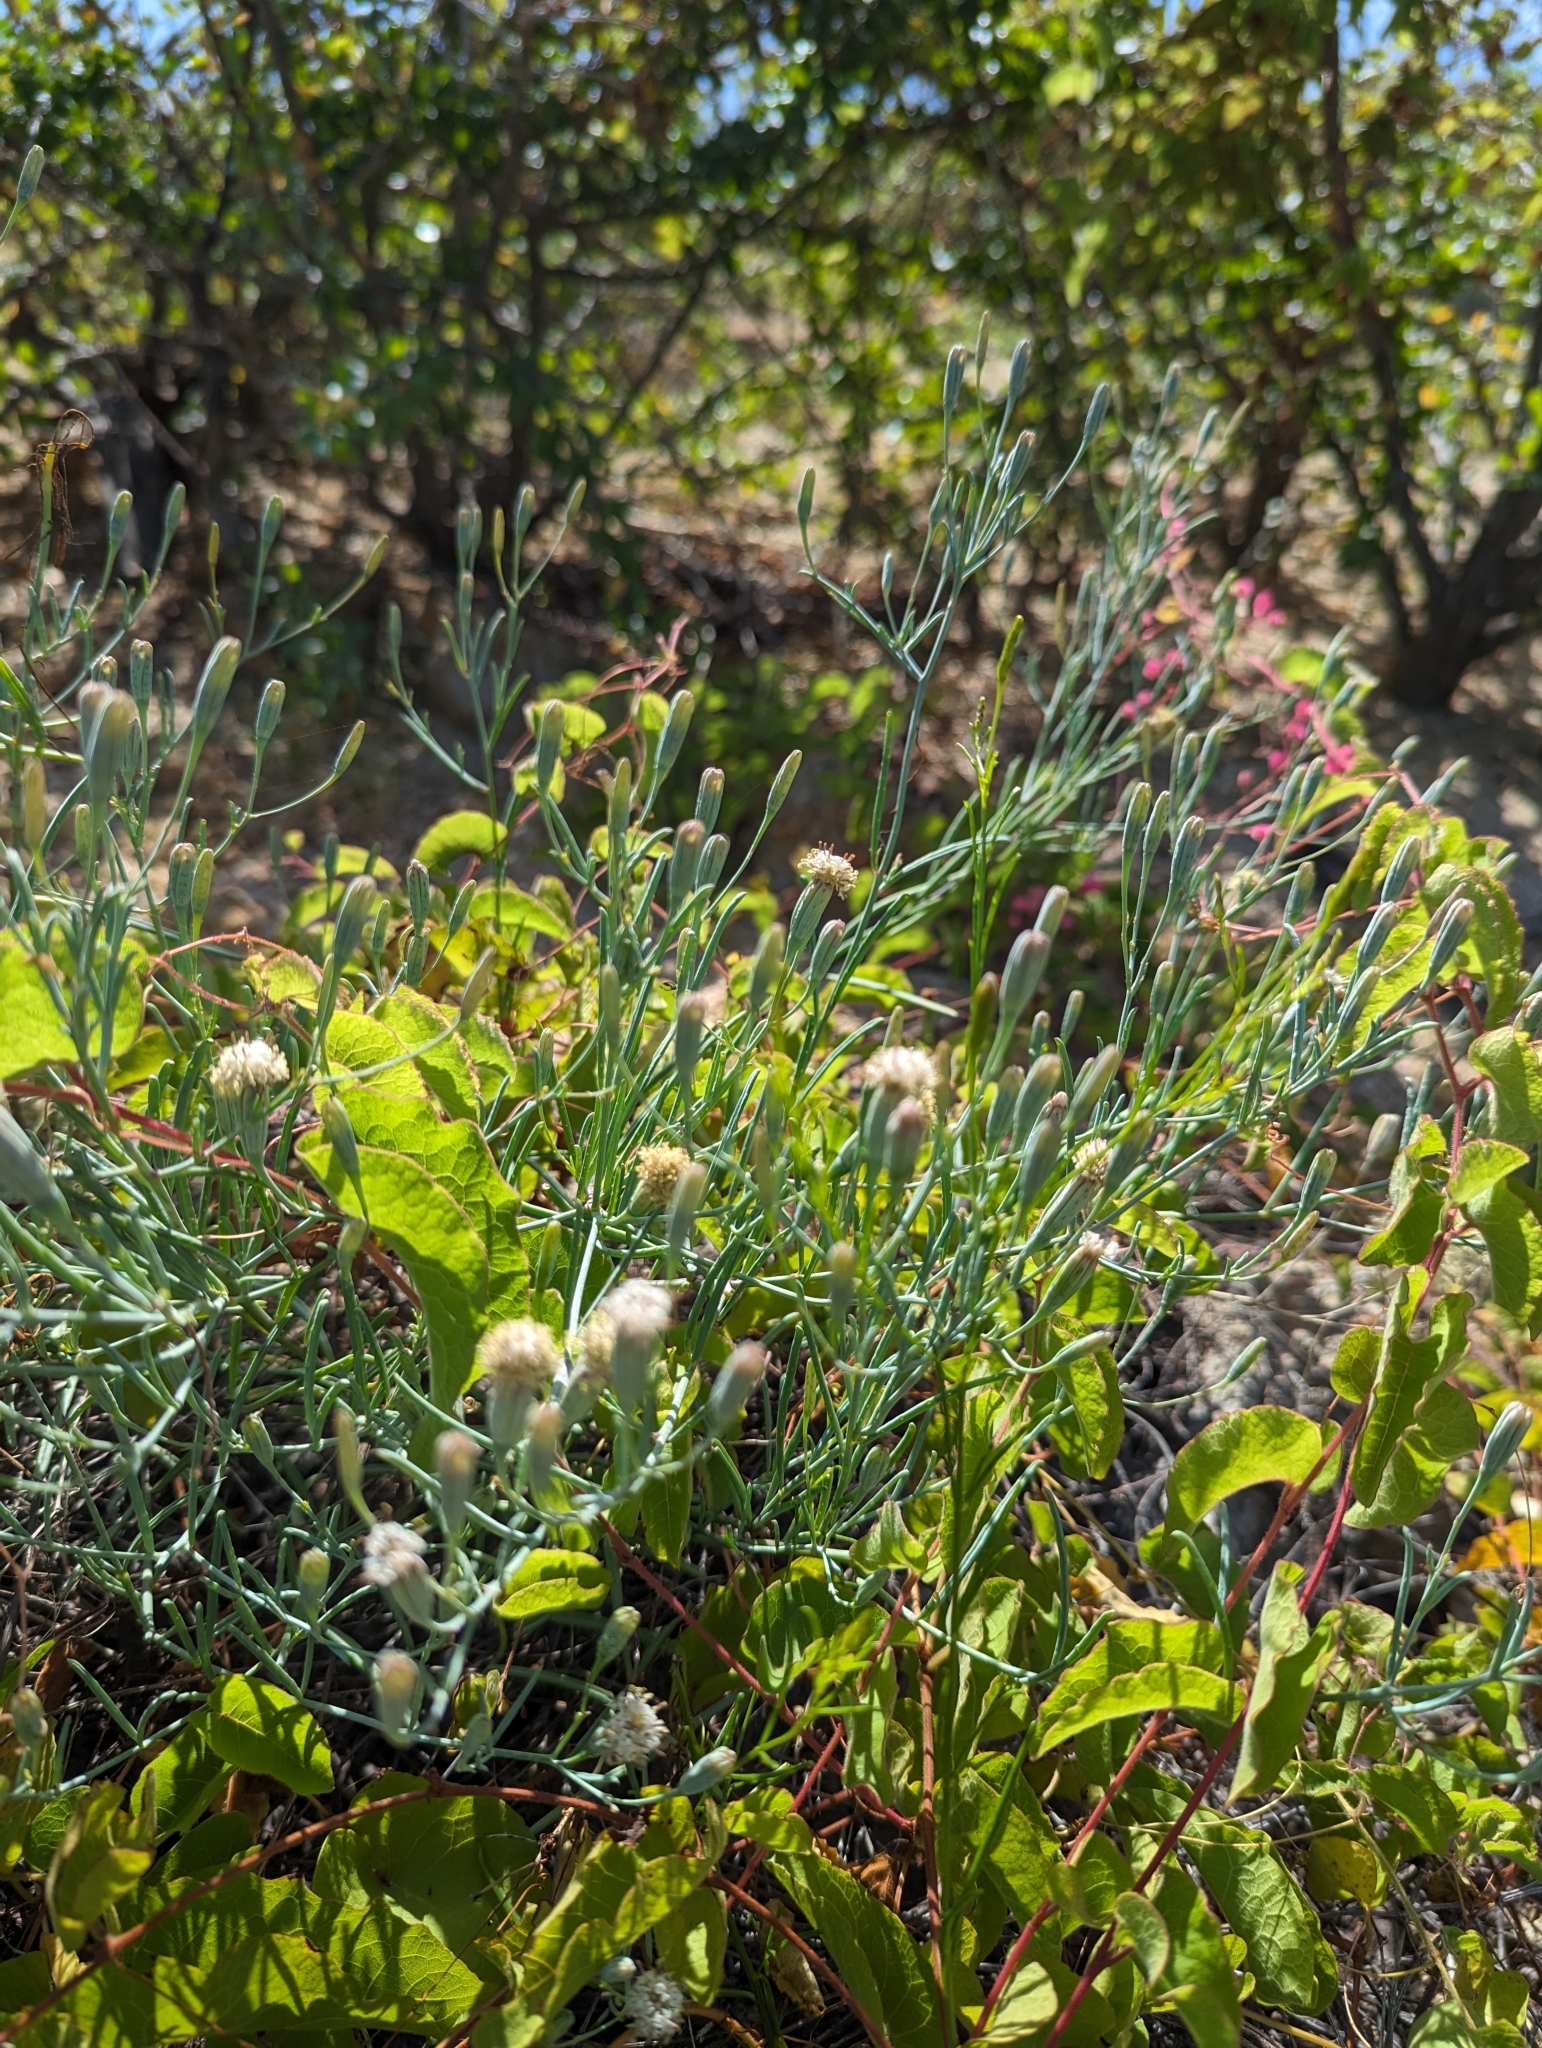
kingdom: Plantae
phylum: Tracheophyta
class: Magnoliopsida
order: Asterales
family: Asteraceae
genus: Porophyllum
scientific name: Porophyllum maritimum
